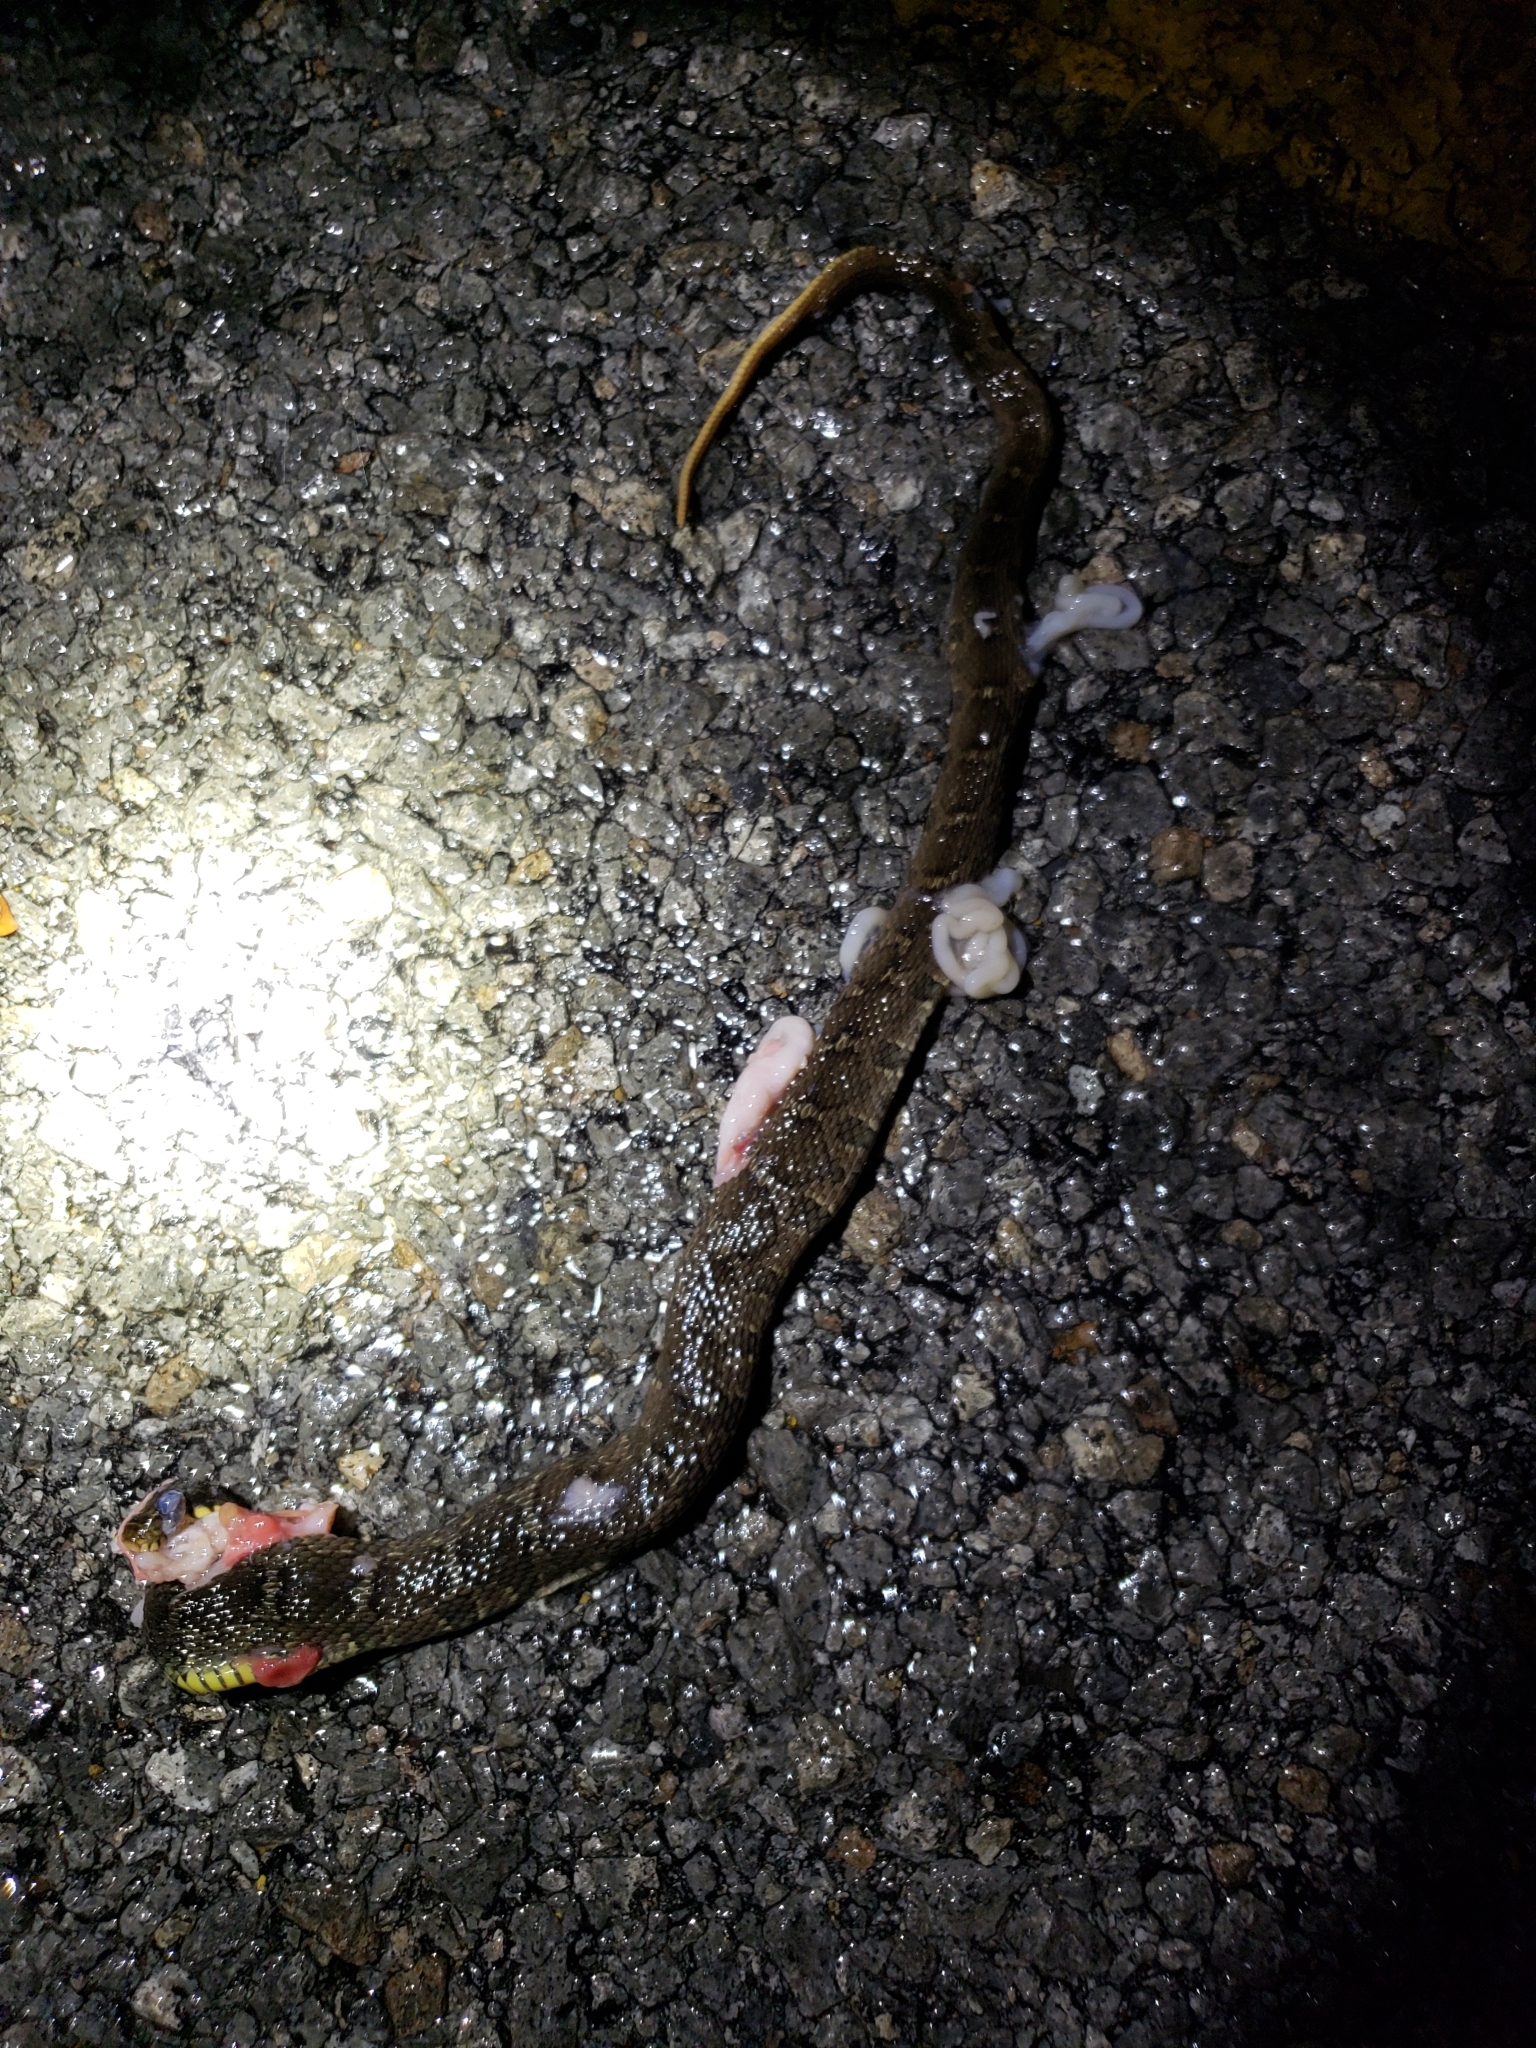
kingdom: Animalia
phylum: Chordata
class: Squamata
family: Colubridae
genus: Nerodia
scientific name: Nerodia erythrogaster
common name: Plainbelly water snake
